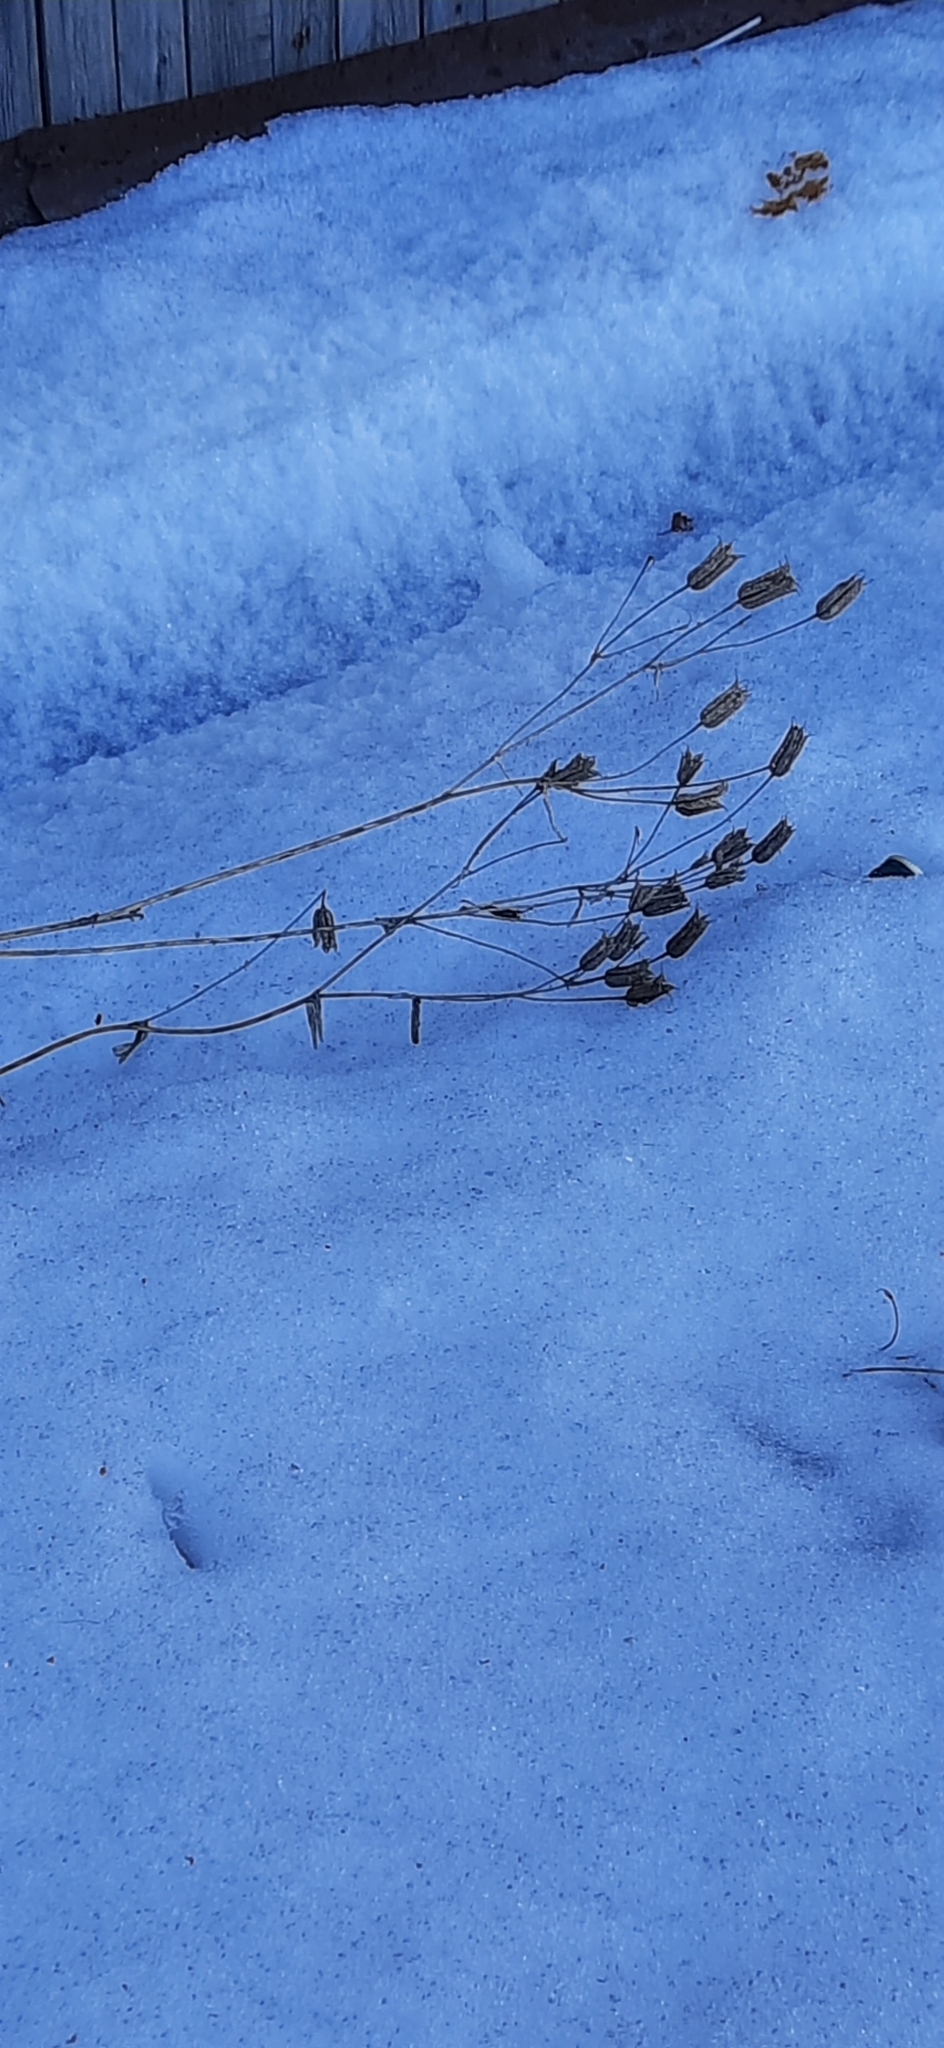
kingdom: Plantae
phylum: Tracheophyta
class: Magnoliopsida
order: Ranunculales
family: Ranunculaceae
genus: Aquilegia
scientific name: Aquilegia vulgaris
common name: Columbine
